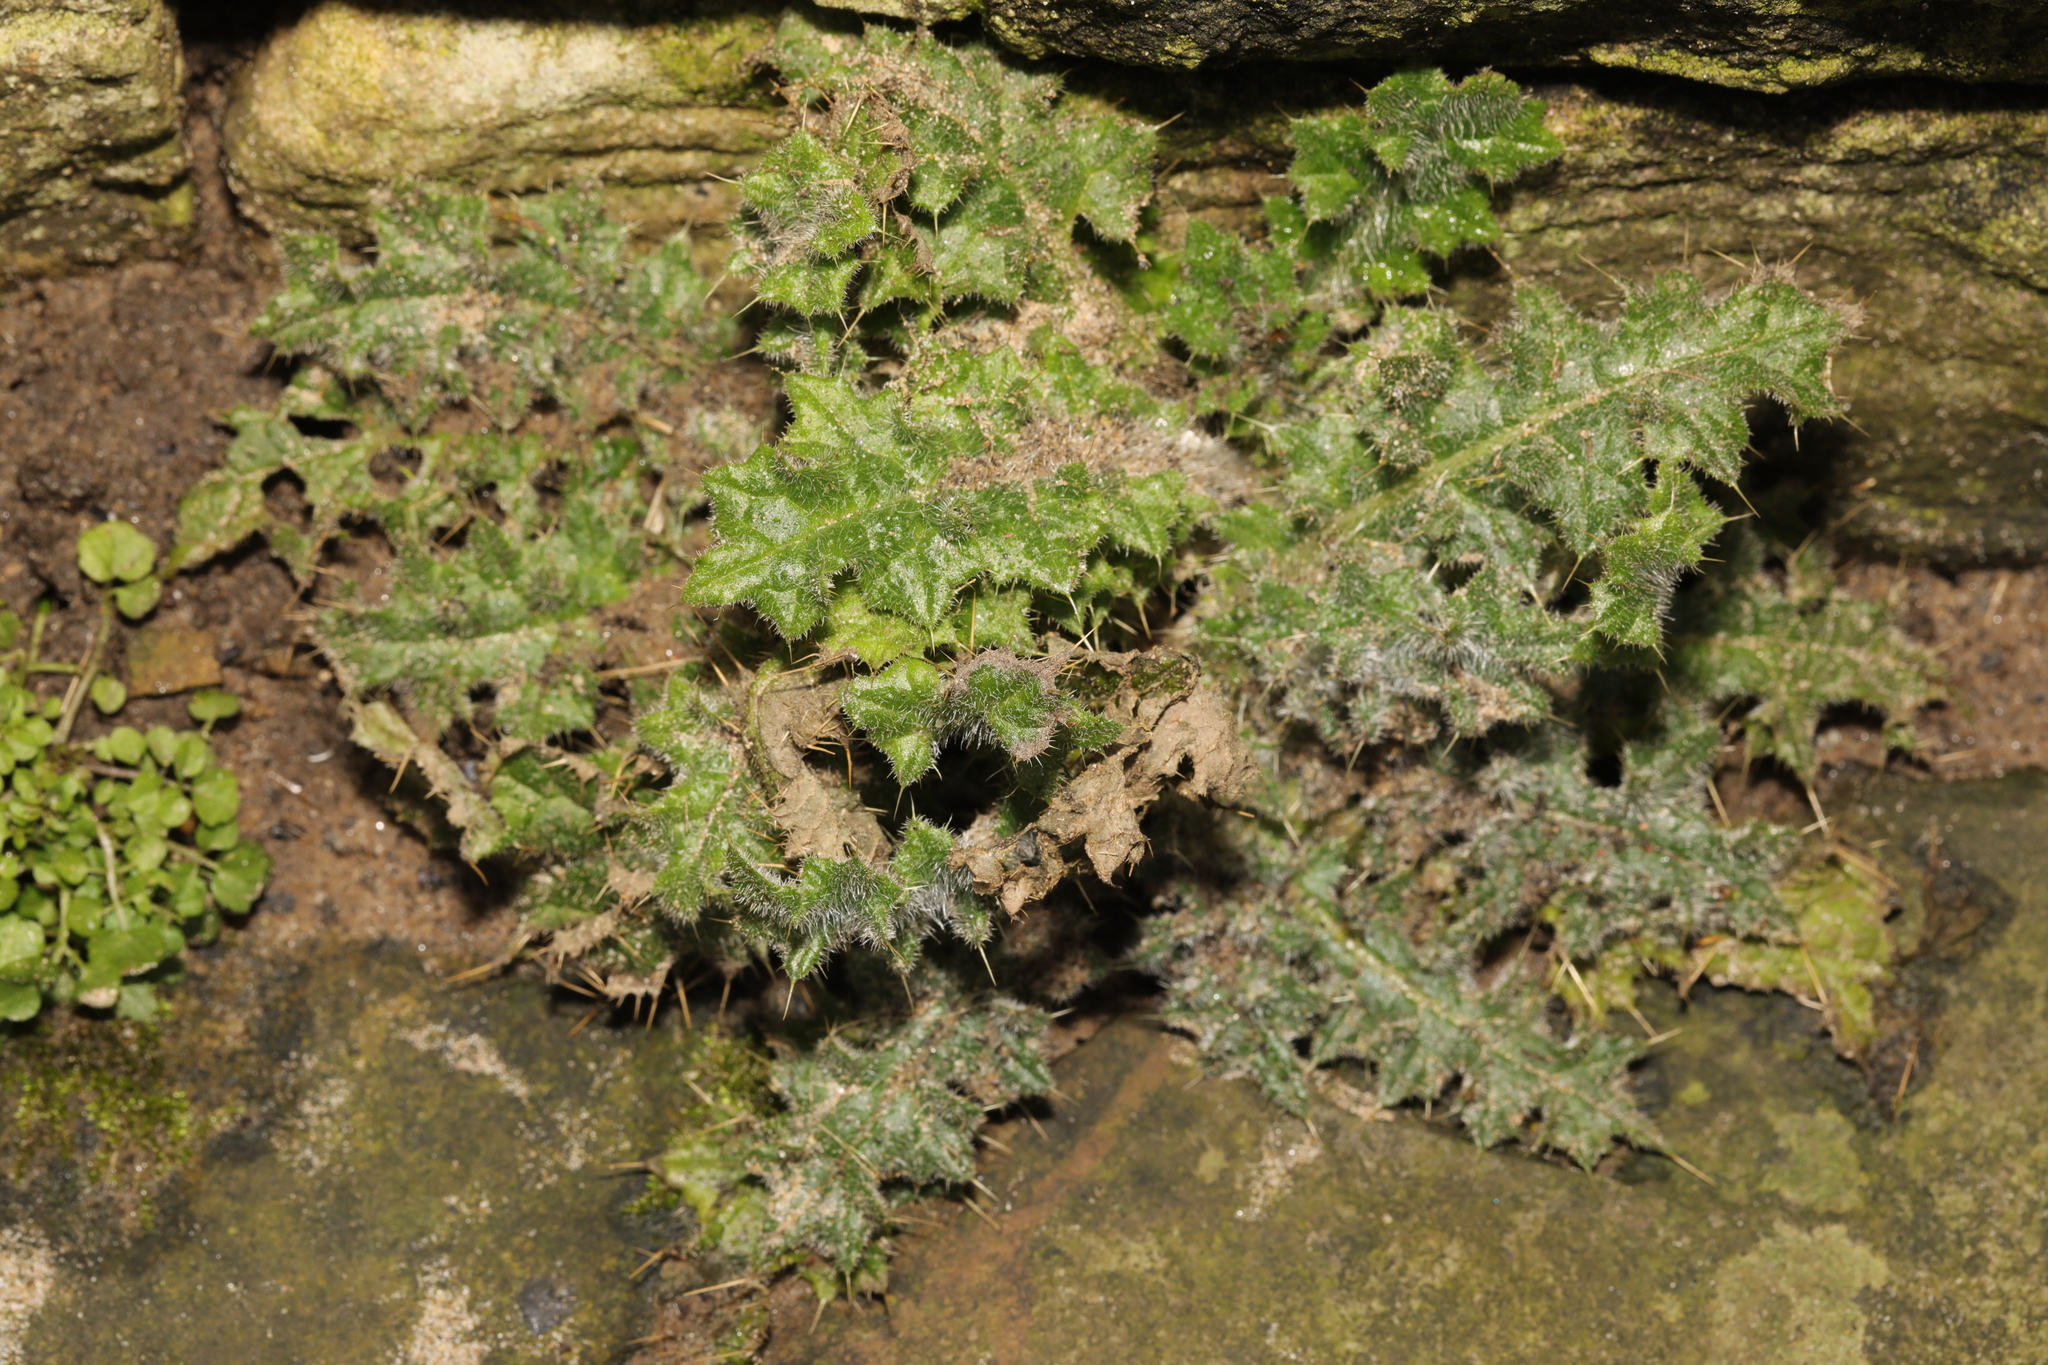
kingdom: Plantae
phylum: Tracheophyta
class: Magnoliopsida
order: Asterales
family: Asteraceae
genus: Cirsium
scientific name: Cirsium vulgare
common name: Bull thistle
